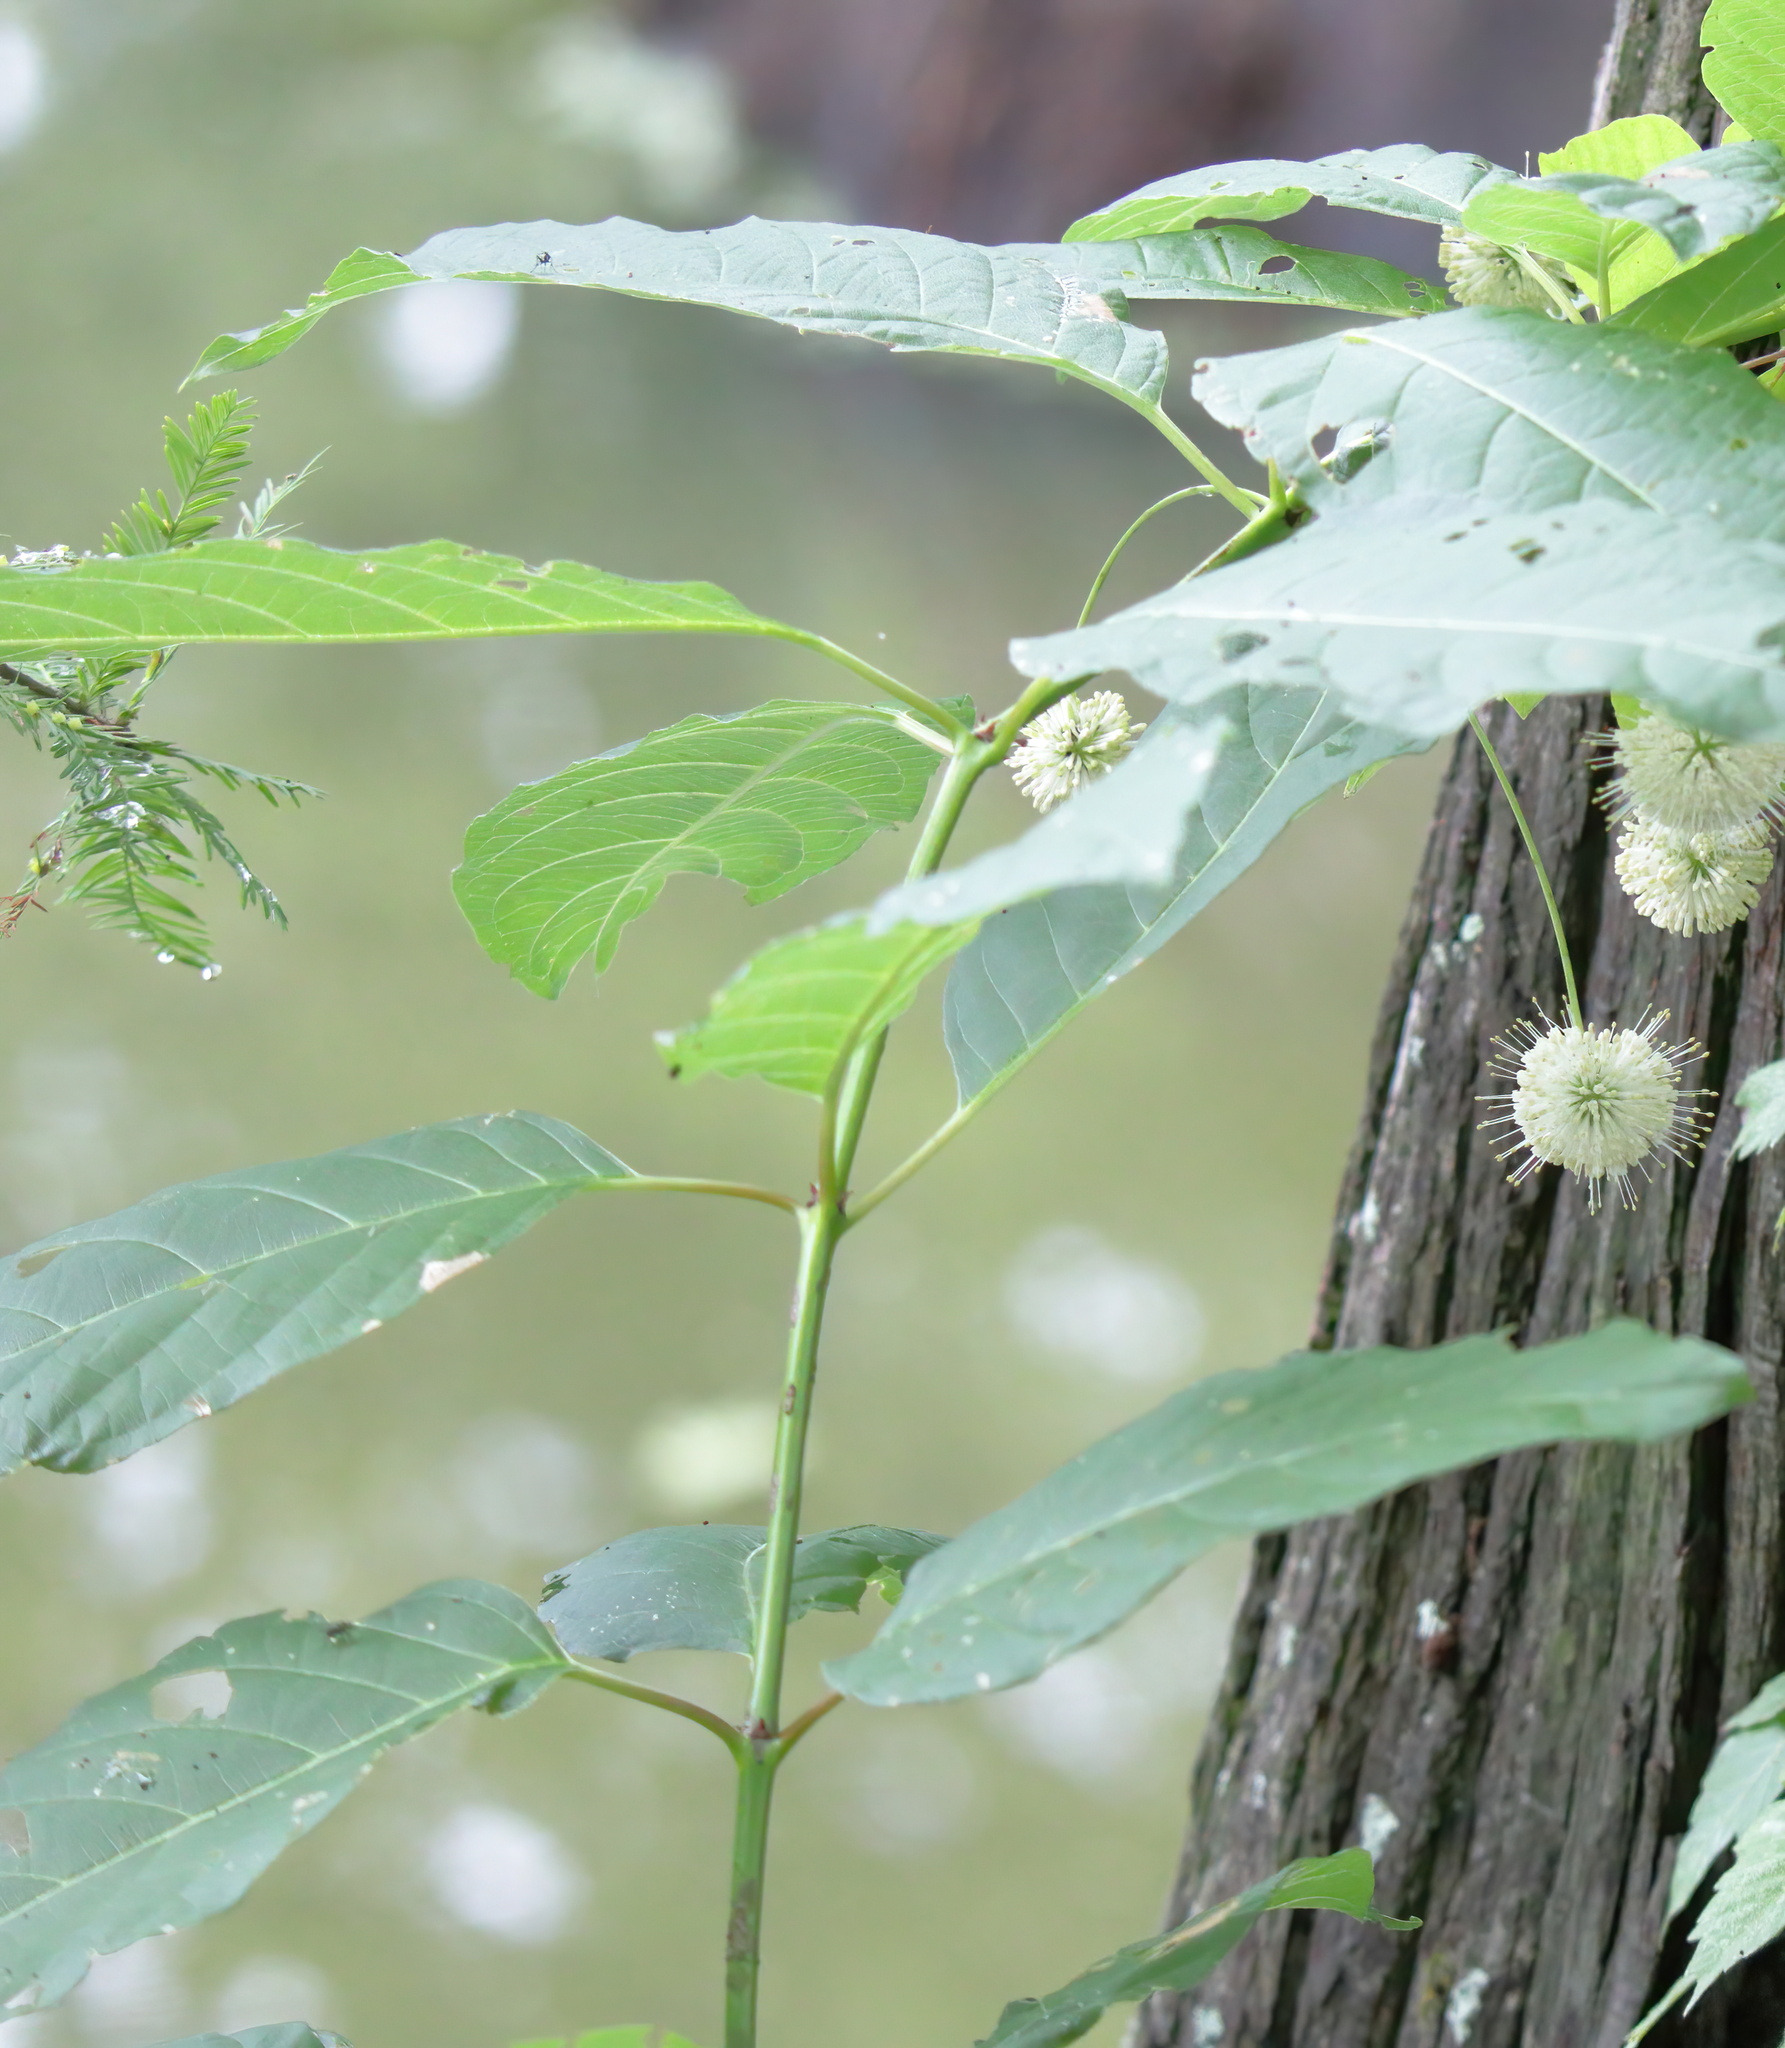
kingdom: Plantae
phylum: Tracheophyta
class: Magnoliopsida
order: Gentianales
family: Rubiaceae
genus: Cephalanthus
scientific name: Cephalanthus occidentalis
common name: Button-willow
